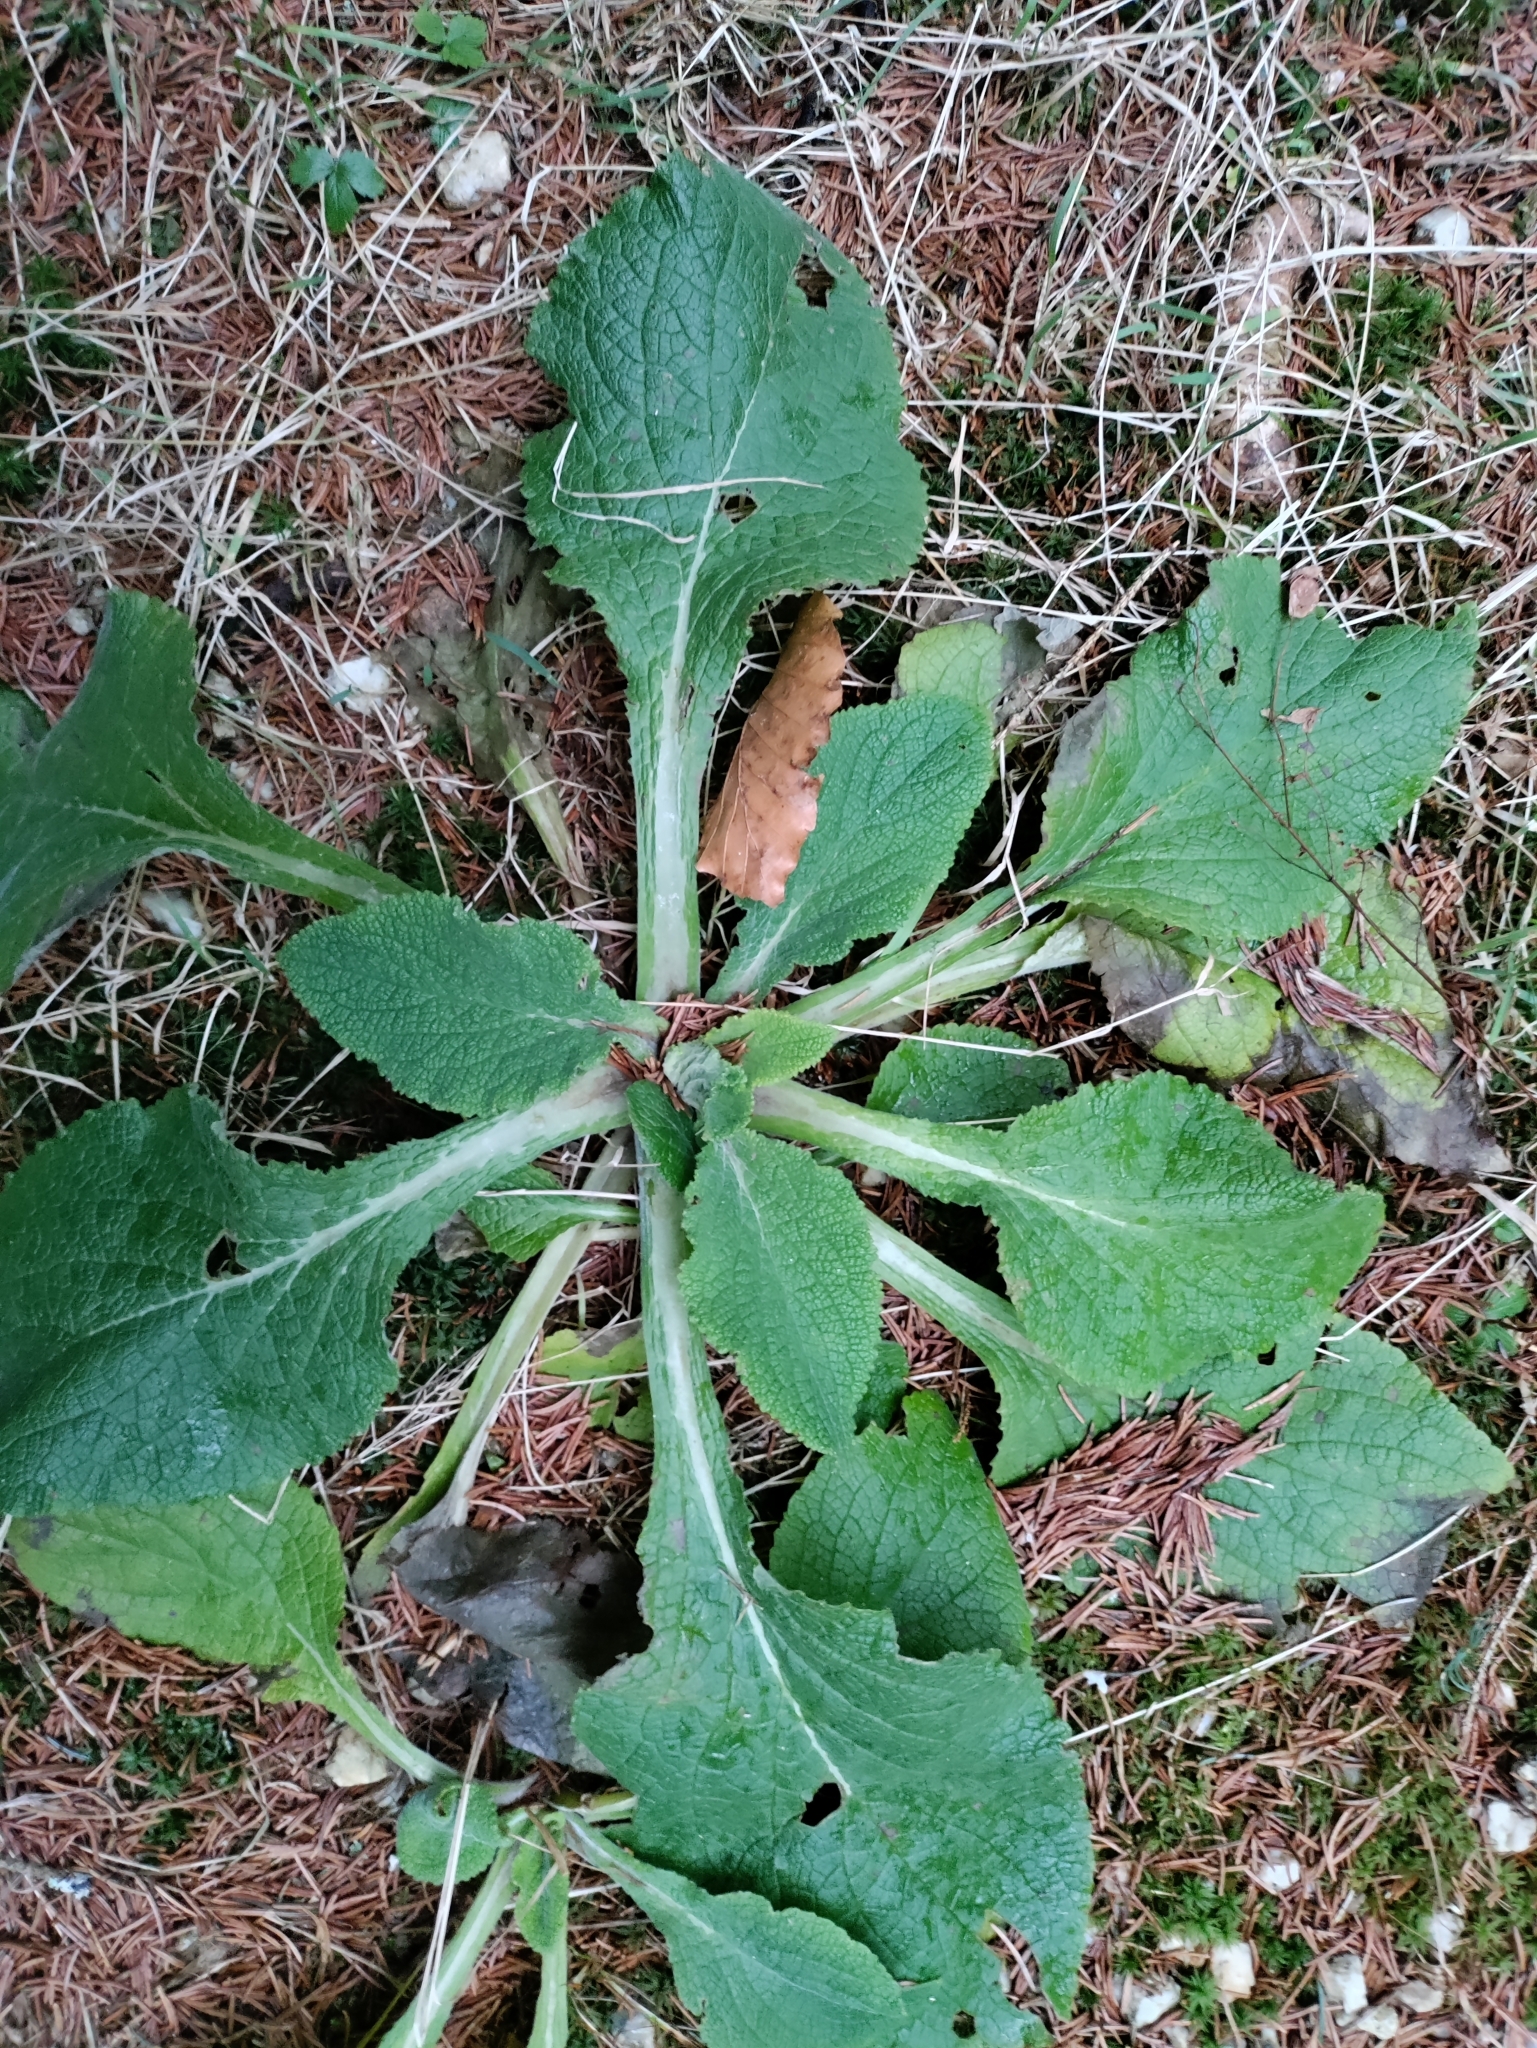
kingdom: Plantae
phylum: Tracheophyta
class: Magnoliopsida
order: Lamiales
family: Plantaginaceae
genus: Digitalis
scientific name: Digitalis purpurea
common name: Foxglove
